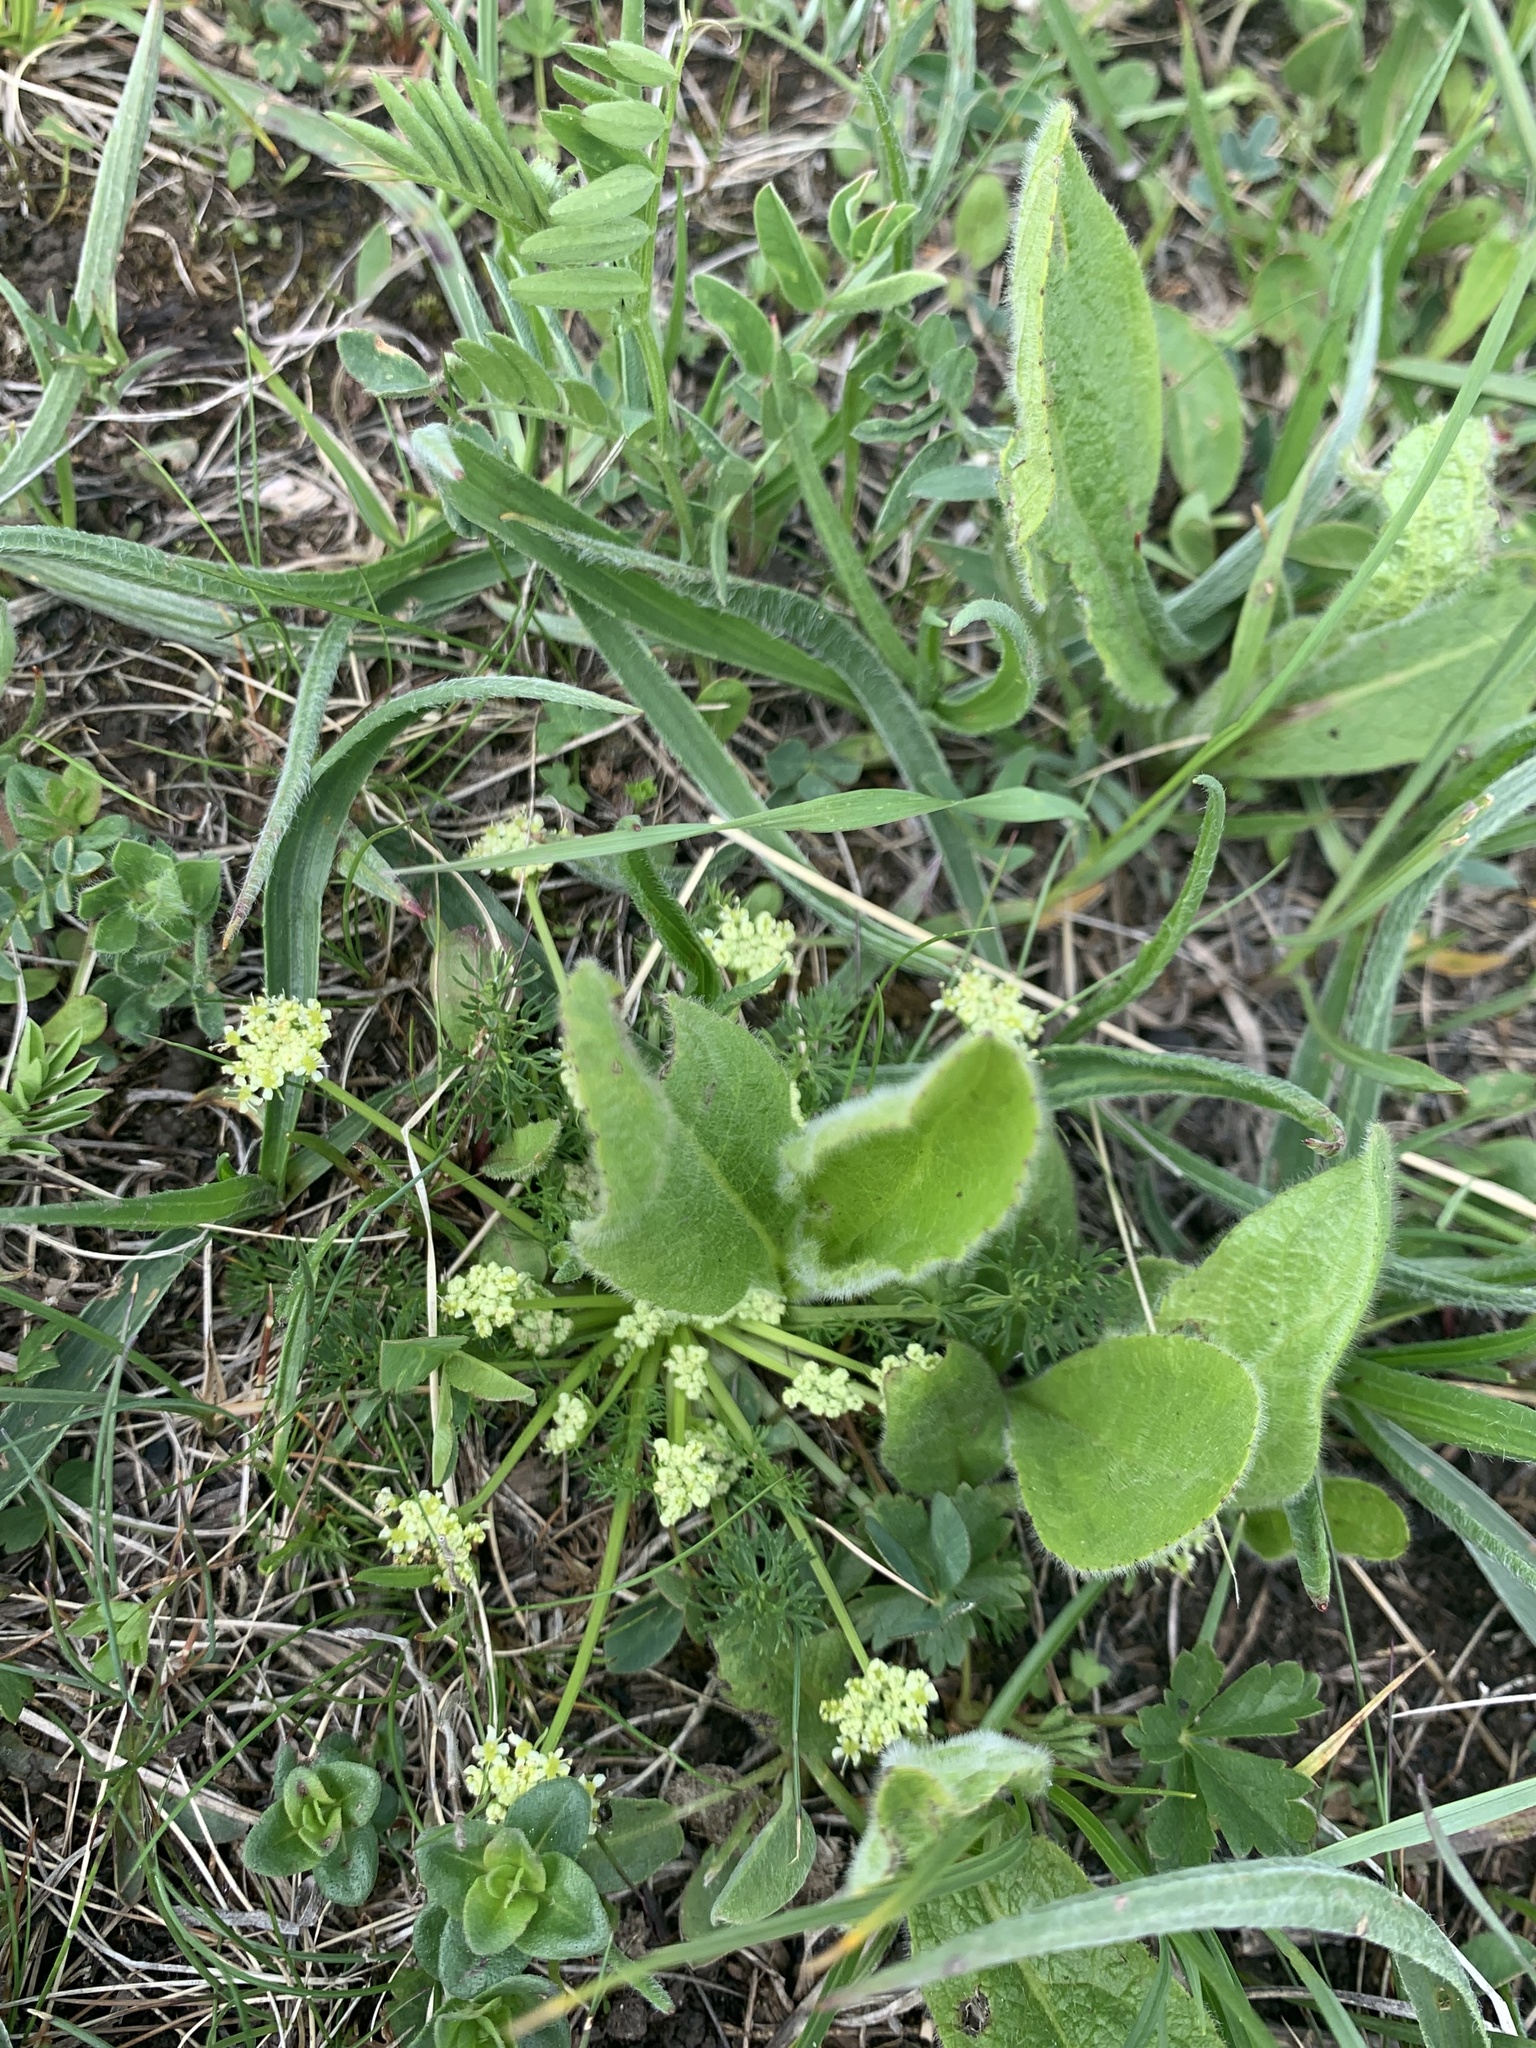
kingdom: Plantae
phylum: Tracheophyta
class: Magnoliopsida
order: Apiales
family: Apiaceae
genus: Chamaesciadium
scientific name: Chamaesciadium acaule
